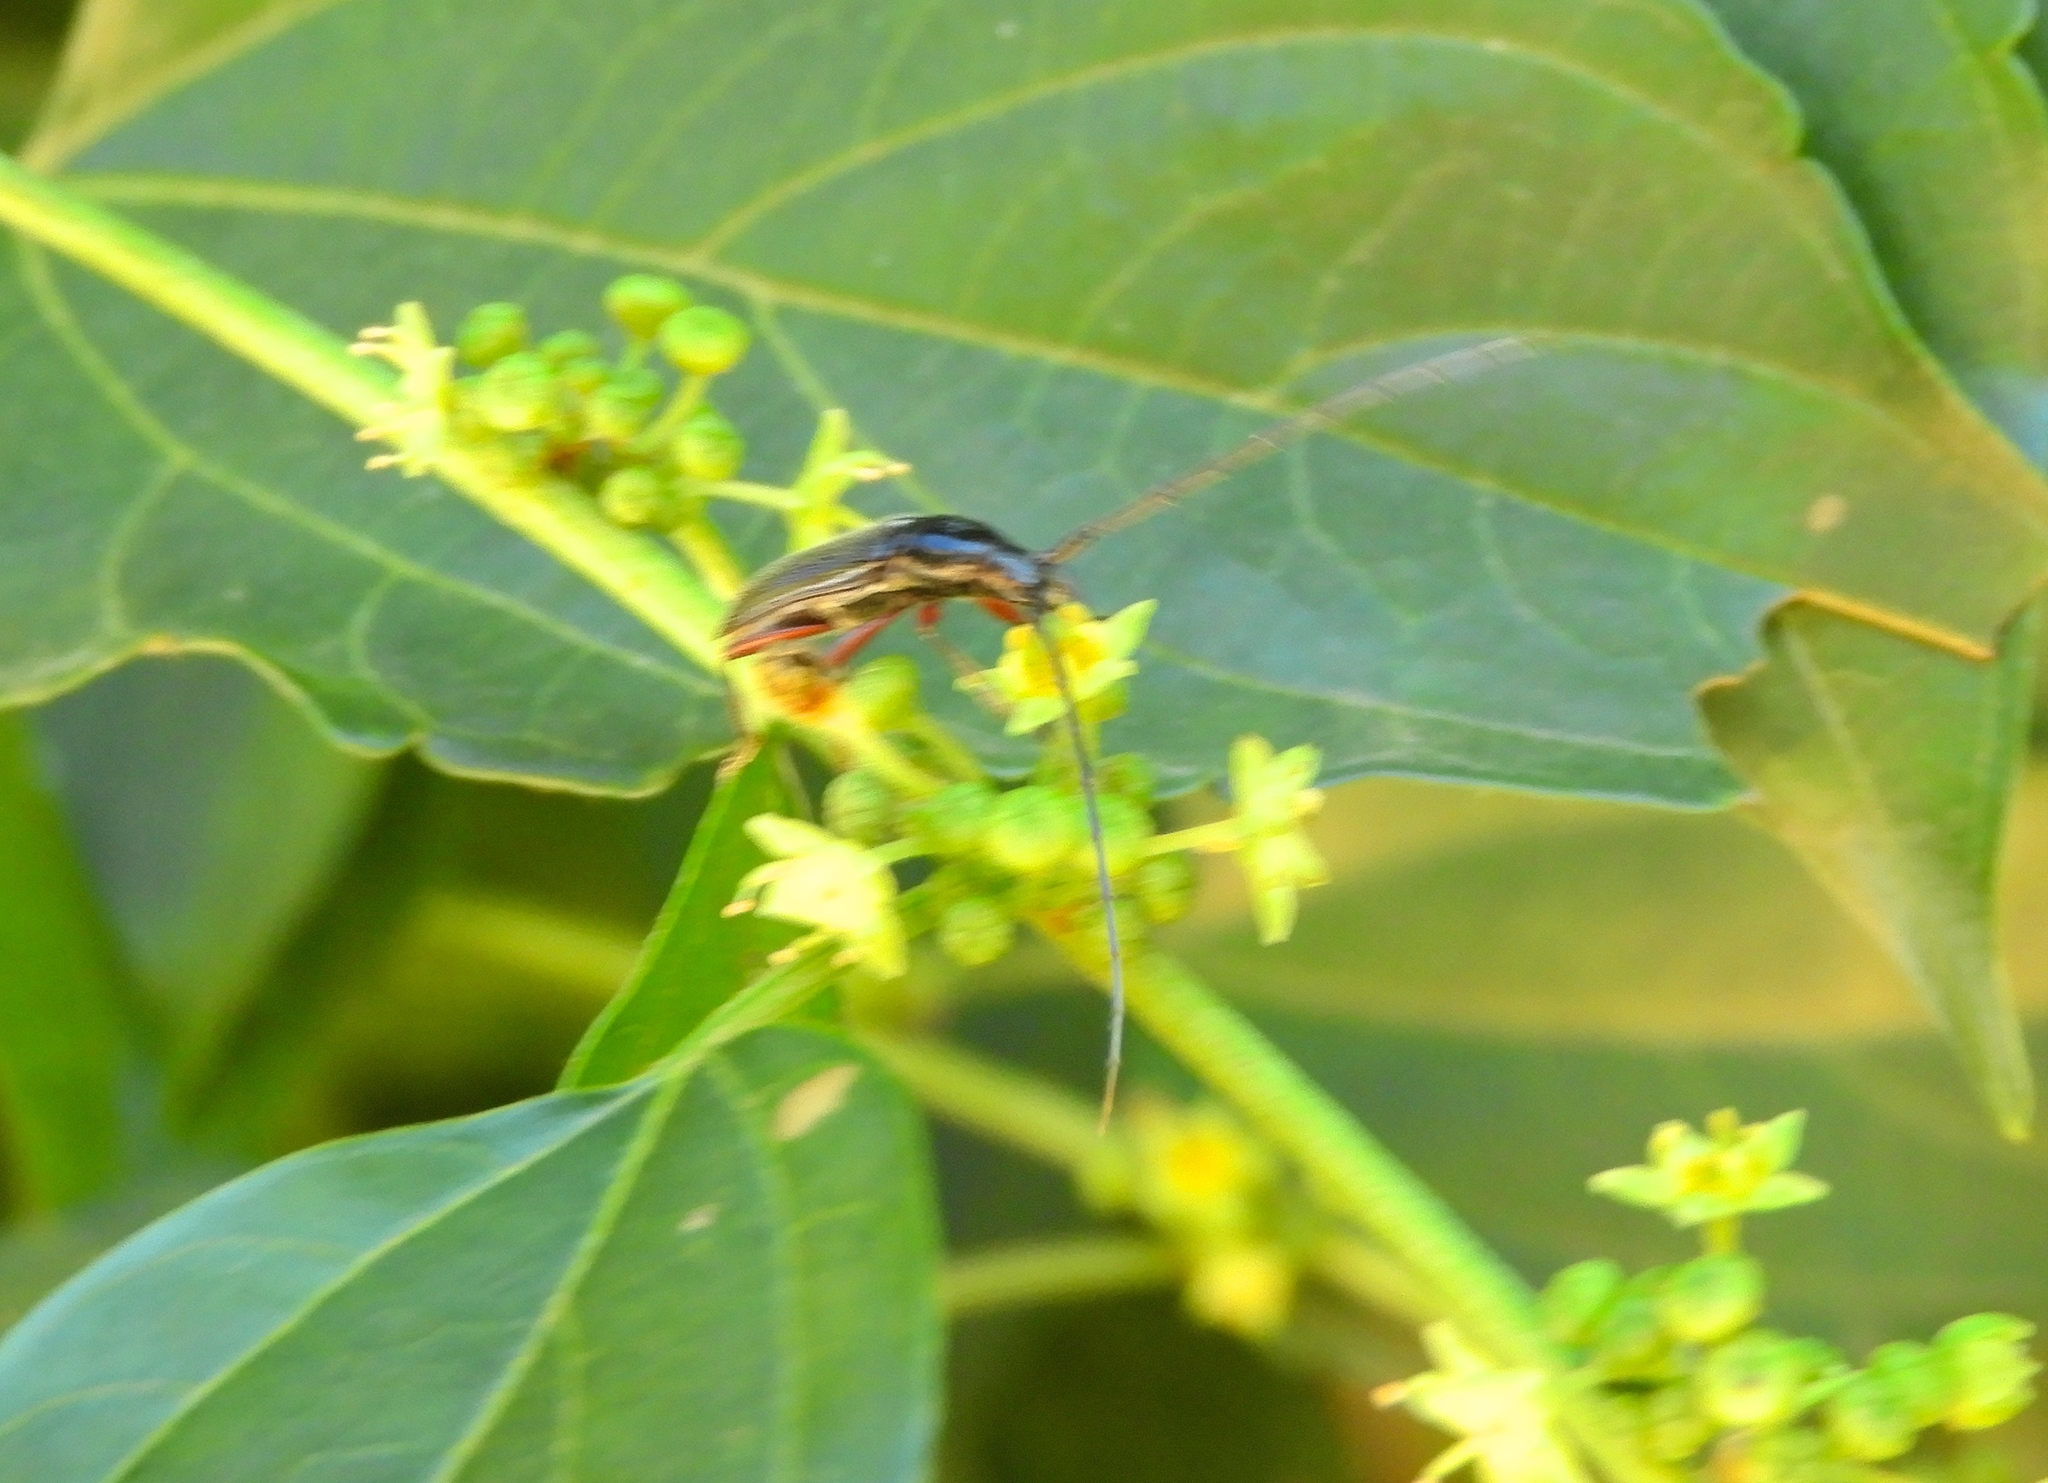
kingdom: Animalia
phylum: Arthropoda
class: Insecta
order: Coleoptera
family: Cerambycidae
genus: Sphaenothecus
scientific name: Sphaenothecus
